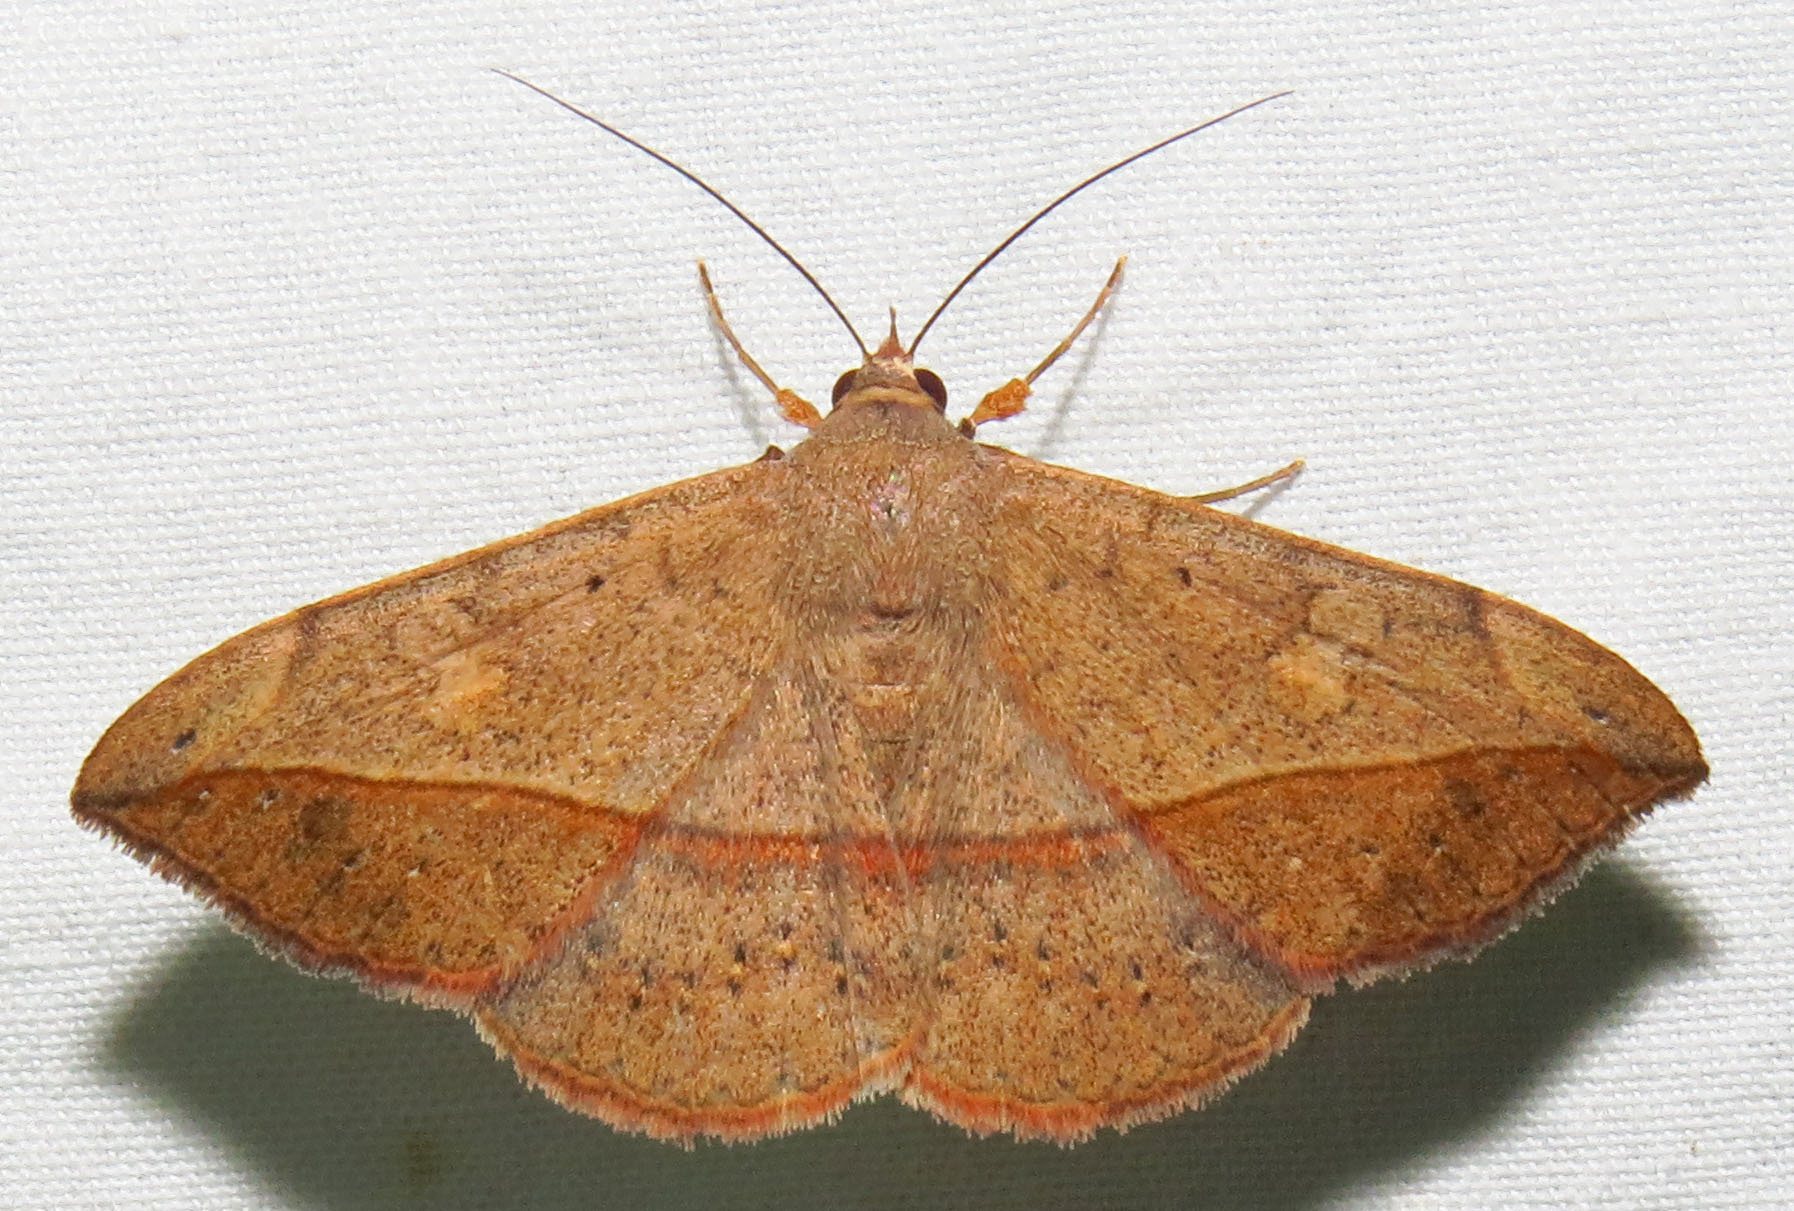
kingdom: Animalia
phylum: Arthropoda
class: Insecta
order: Lepidoptera
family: Erebidae
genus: Anticarsia
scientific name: Anticarsia gemmatalis
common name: Cutworm moth
